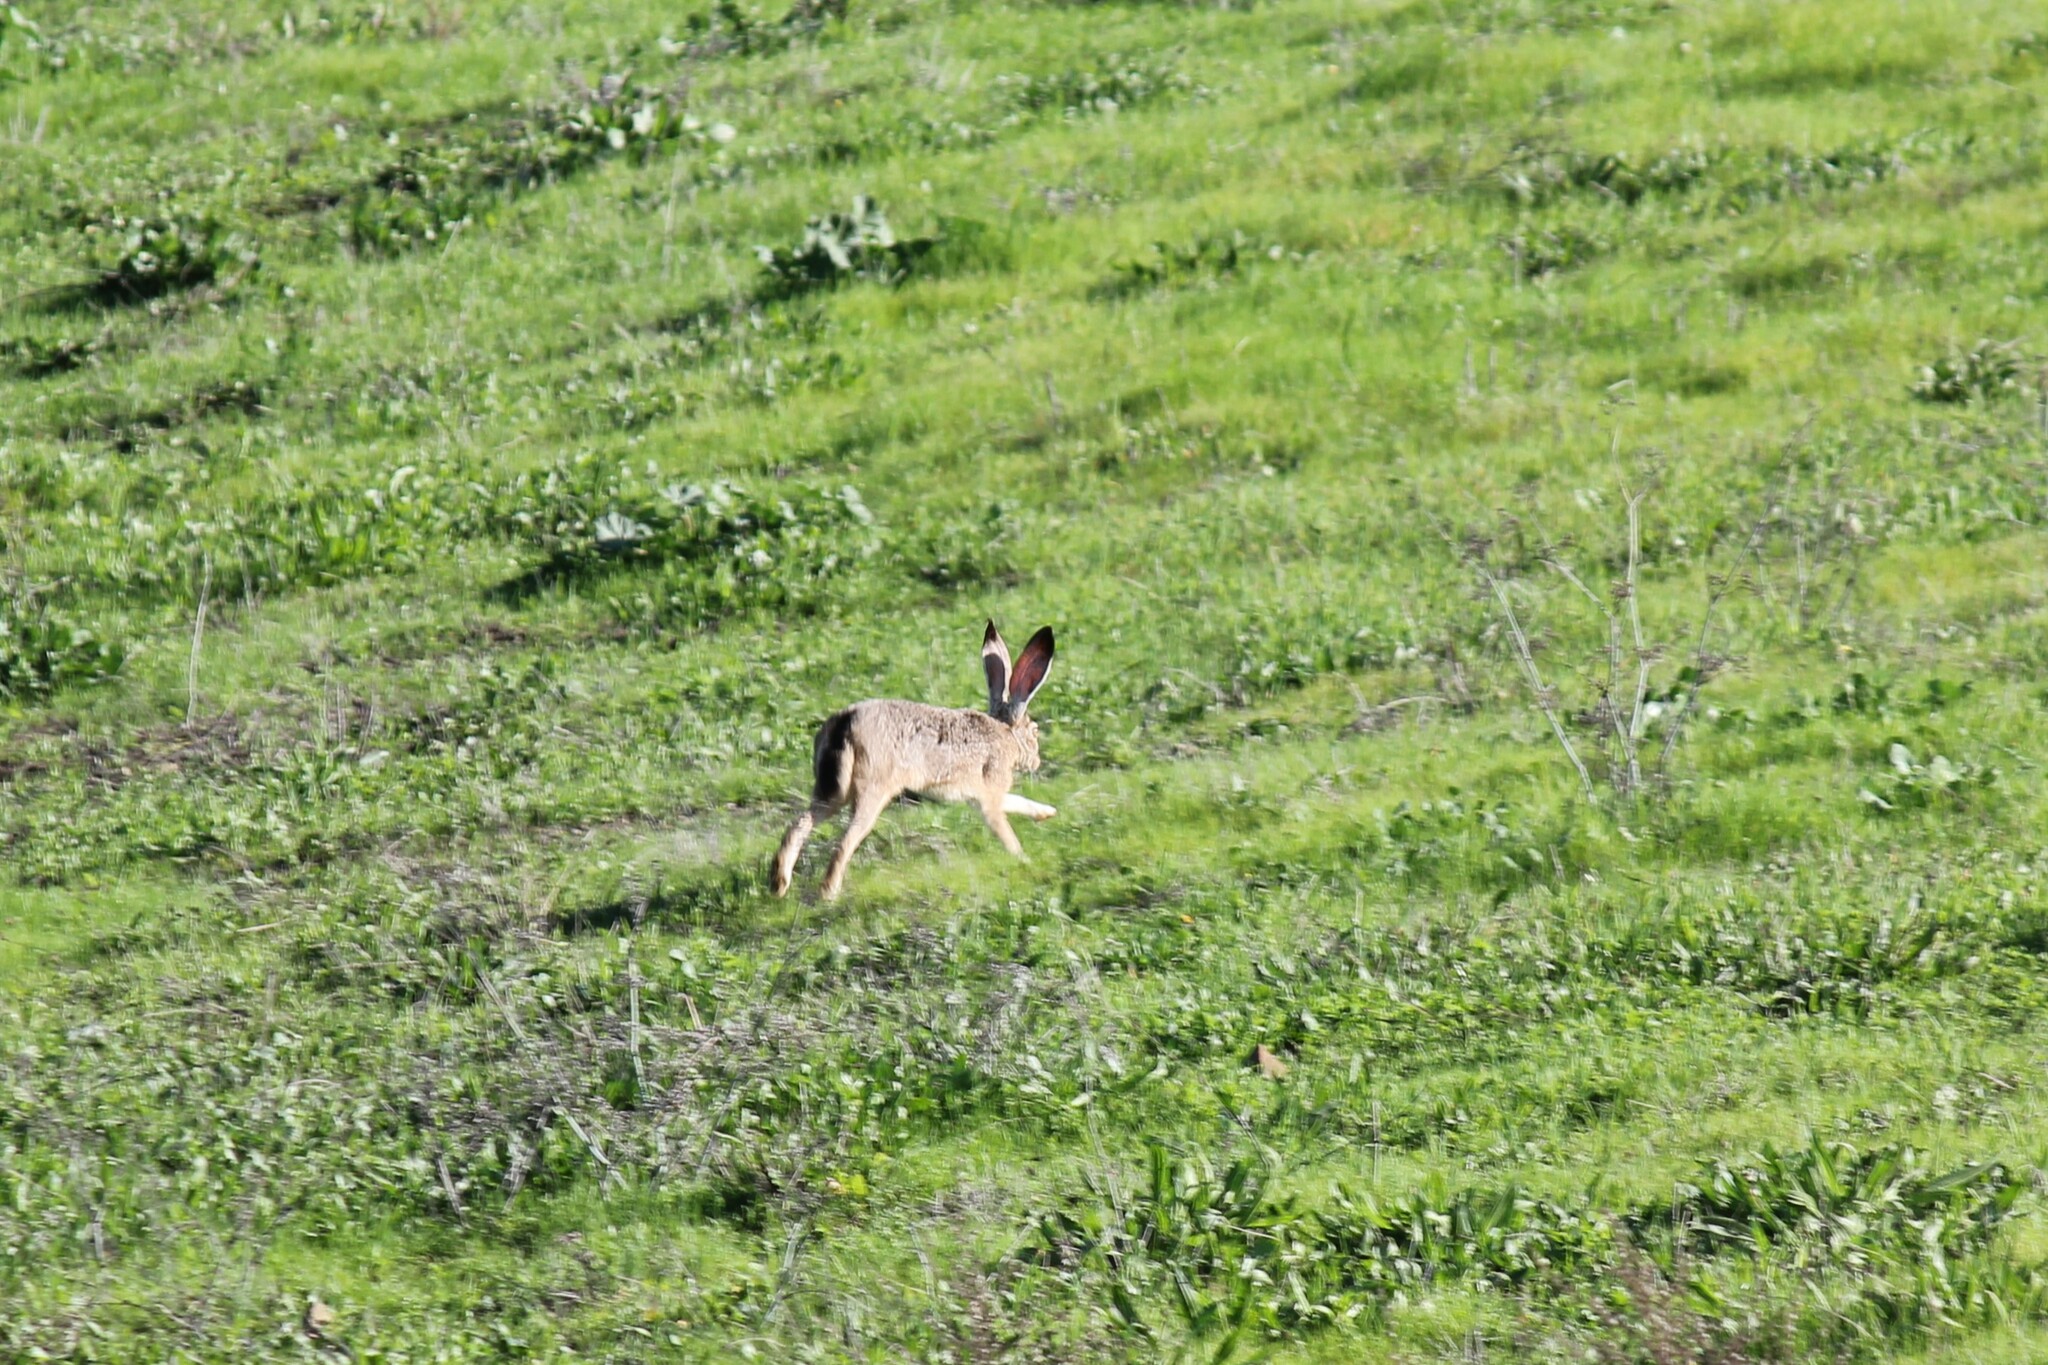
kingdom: Animalia
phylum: Chordata
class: Mammalia
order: Lagomorpha
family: Leporidae
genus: Lepus
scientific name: Lepus californicus
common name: Black-tailed jackrabbit
